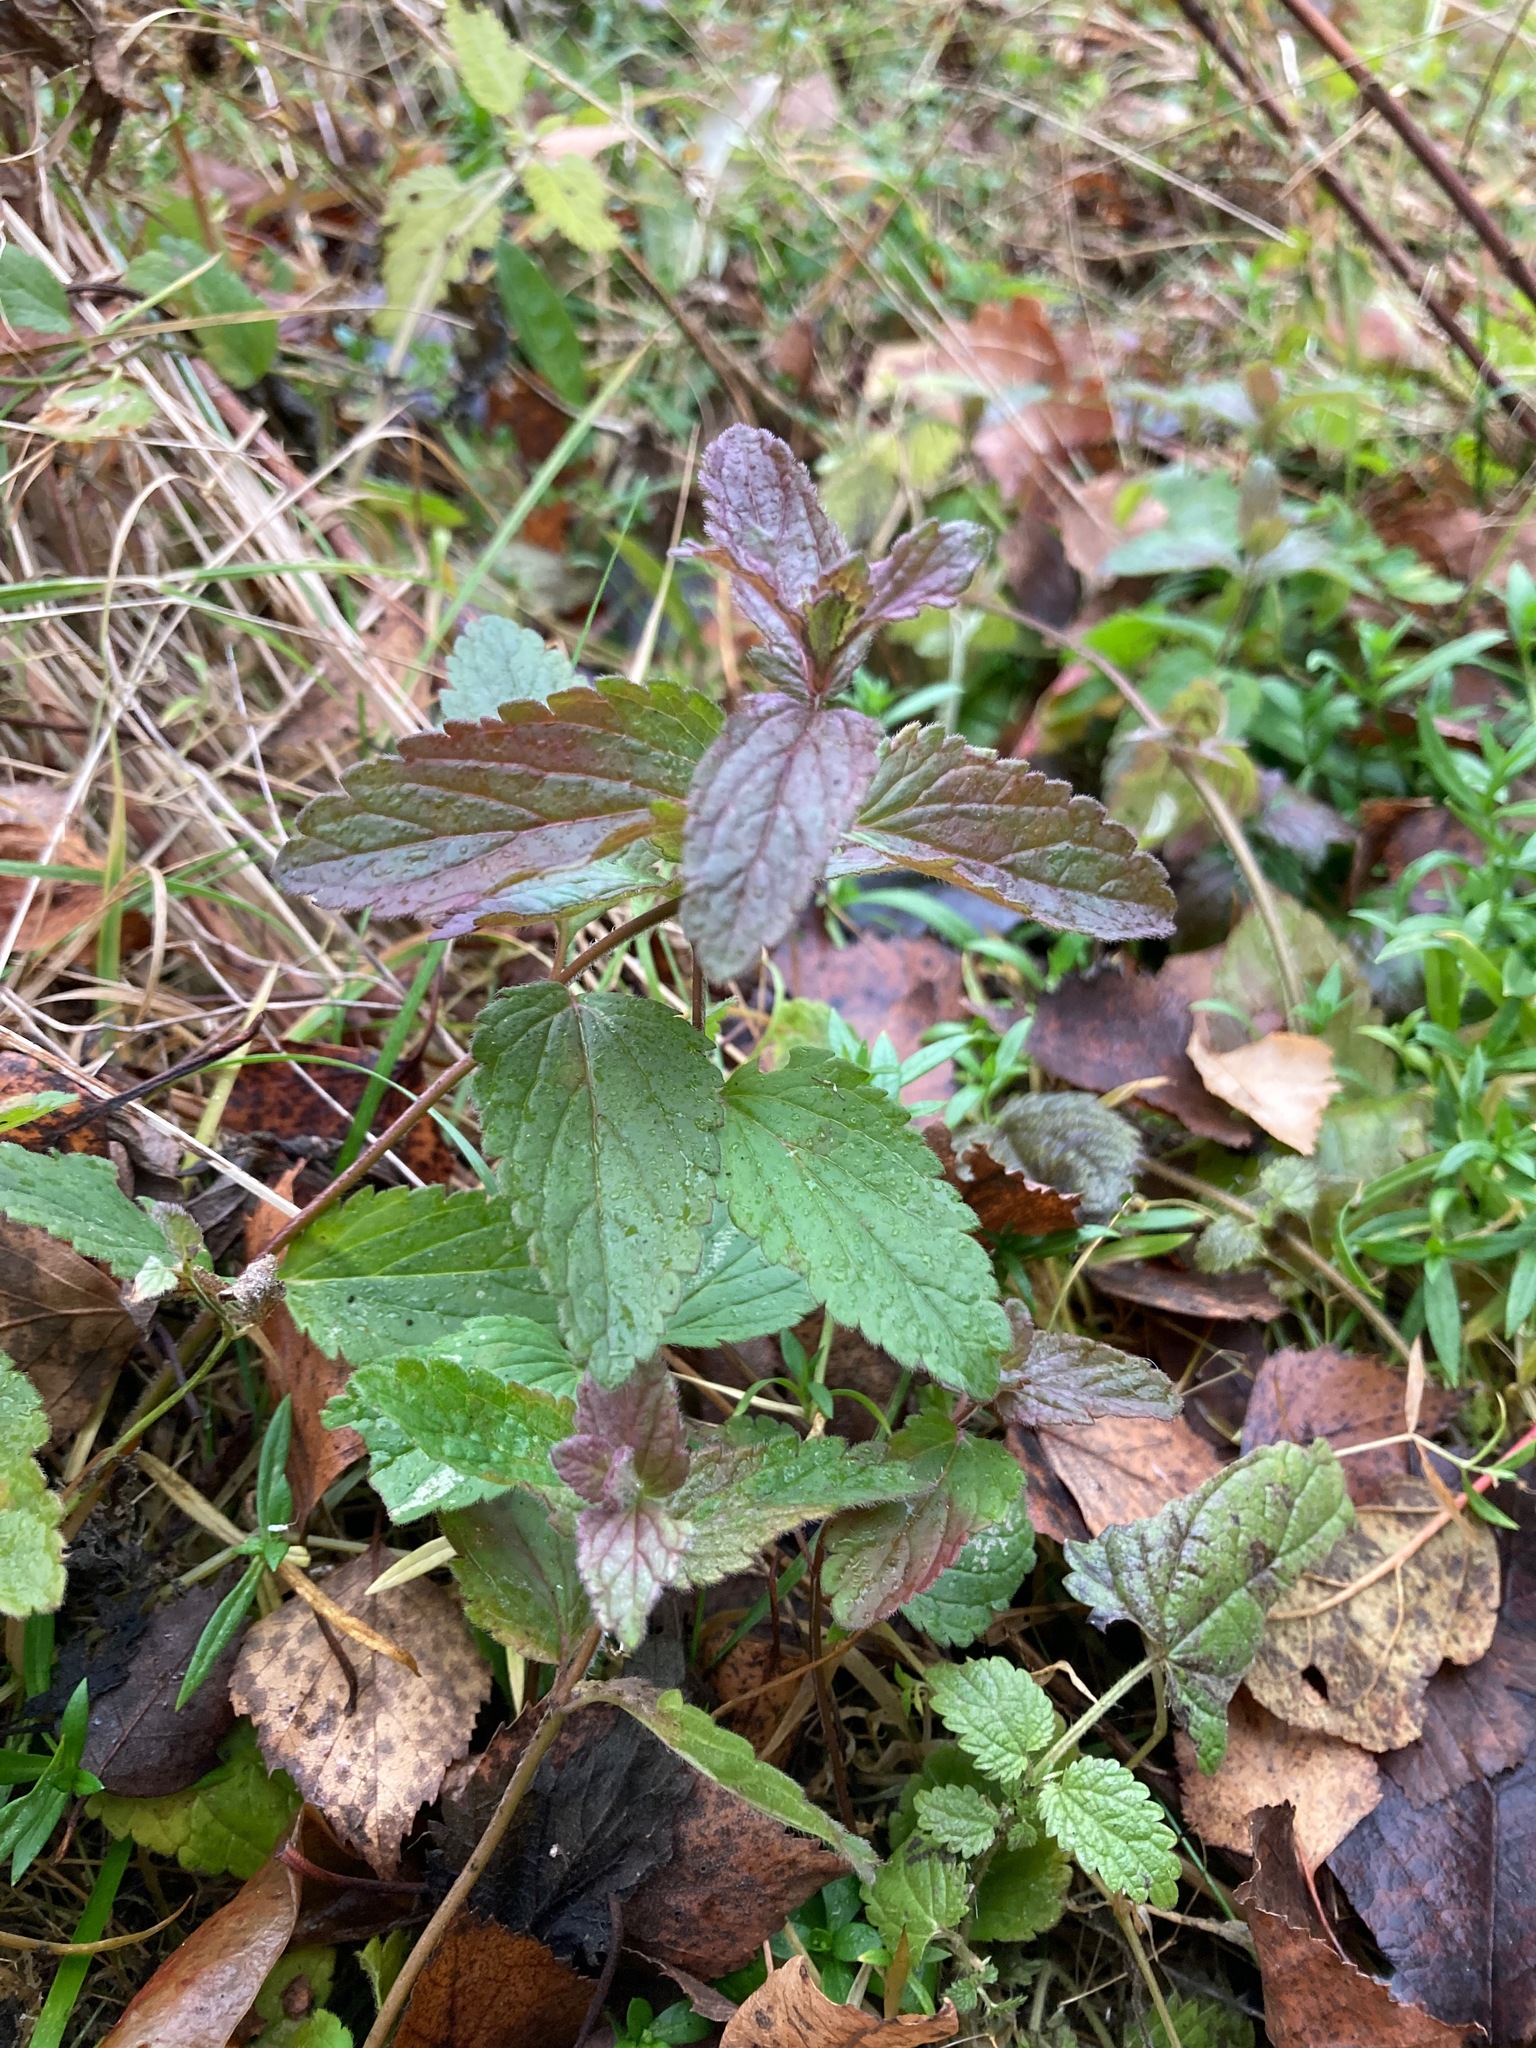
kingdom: Plantae
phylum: Tracheophyta
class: Magnoliopsida
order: Lamiales
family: Plantaginaceae
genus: Veronica
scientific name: Veronica chamaedrys
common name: Germander speedwell
